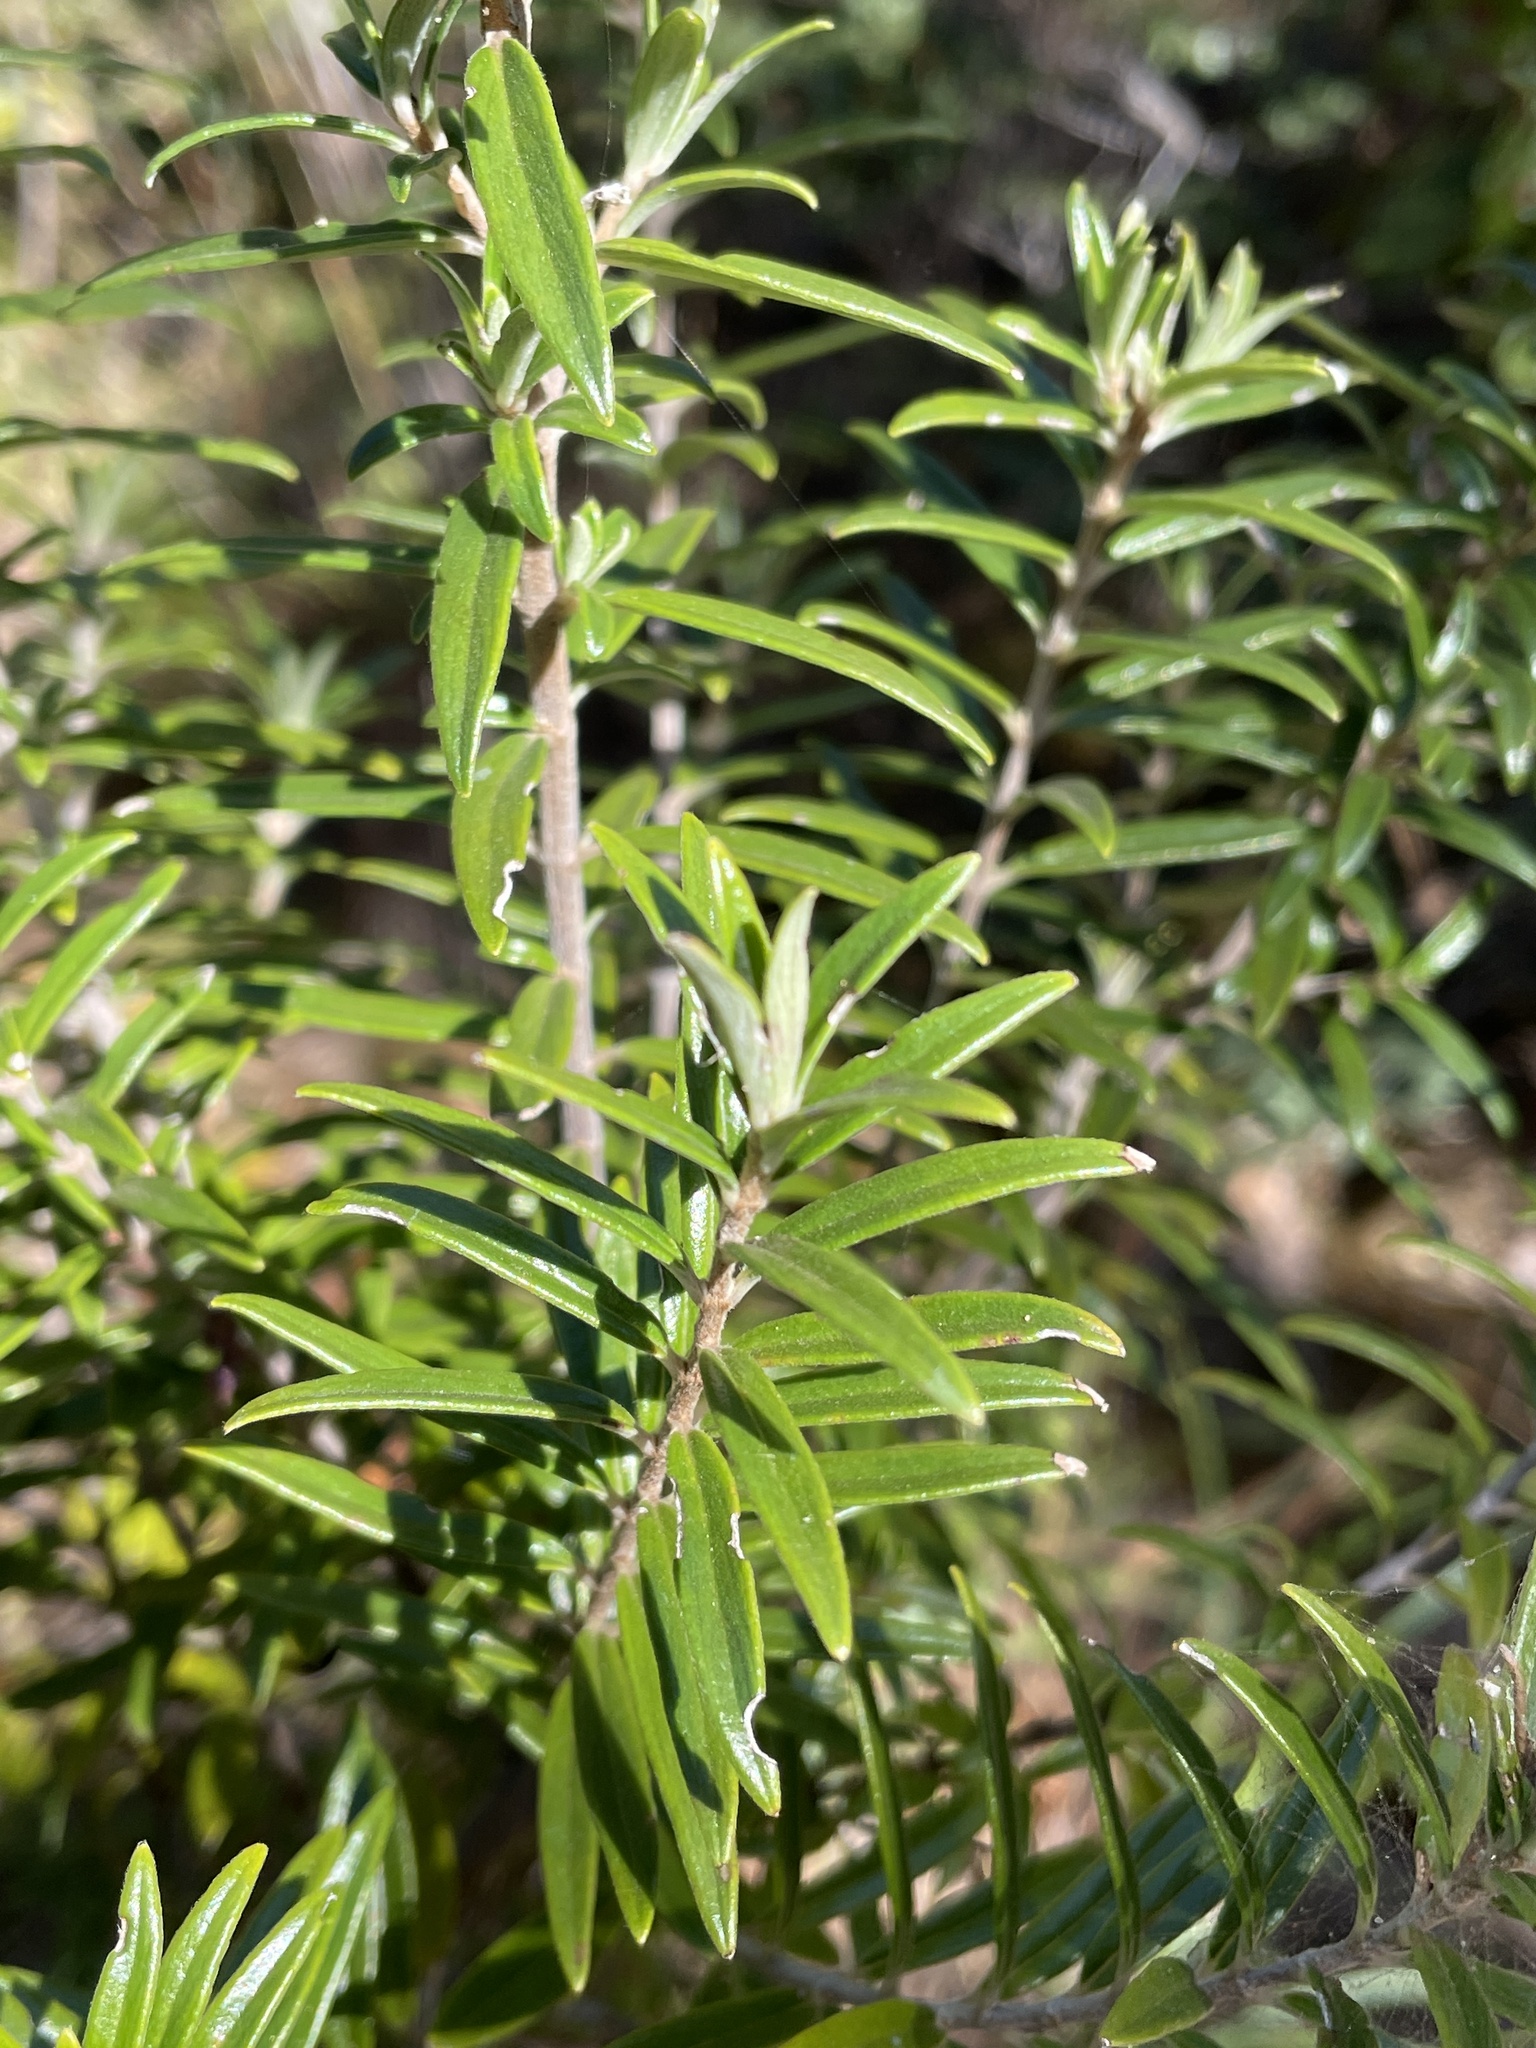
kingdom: Plantae
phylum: Tracheophyta
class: Magnoliopsida
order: Lamiales
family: Lamiaceae
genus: Alvesia
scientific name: Alvesia rosmarinifolia
